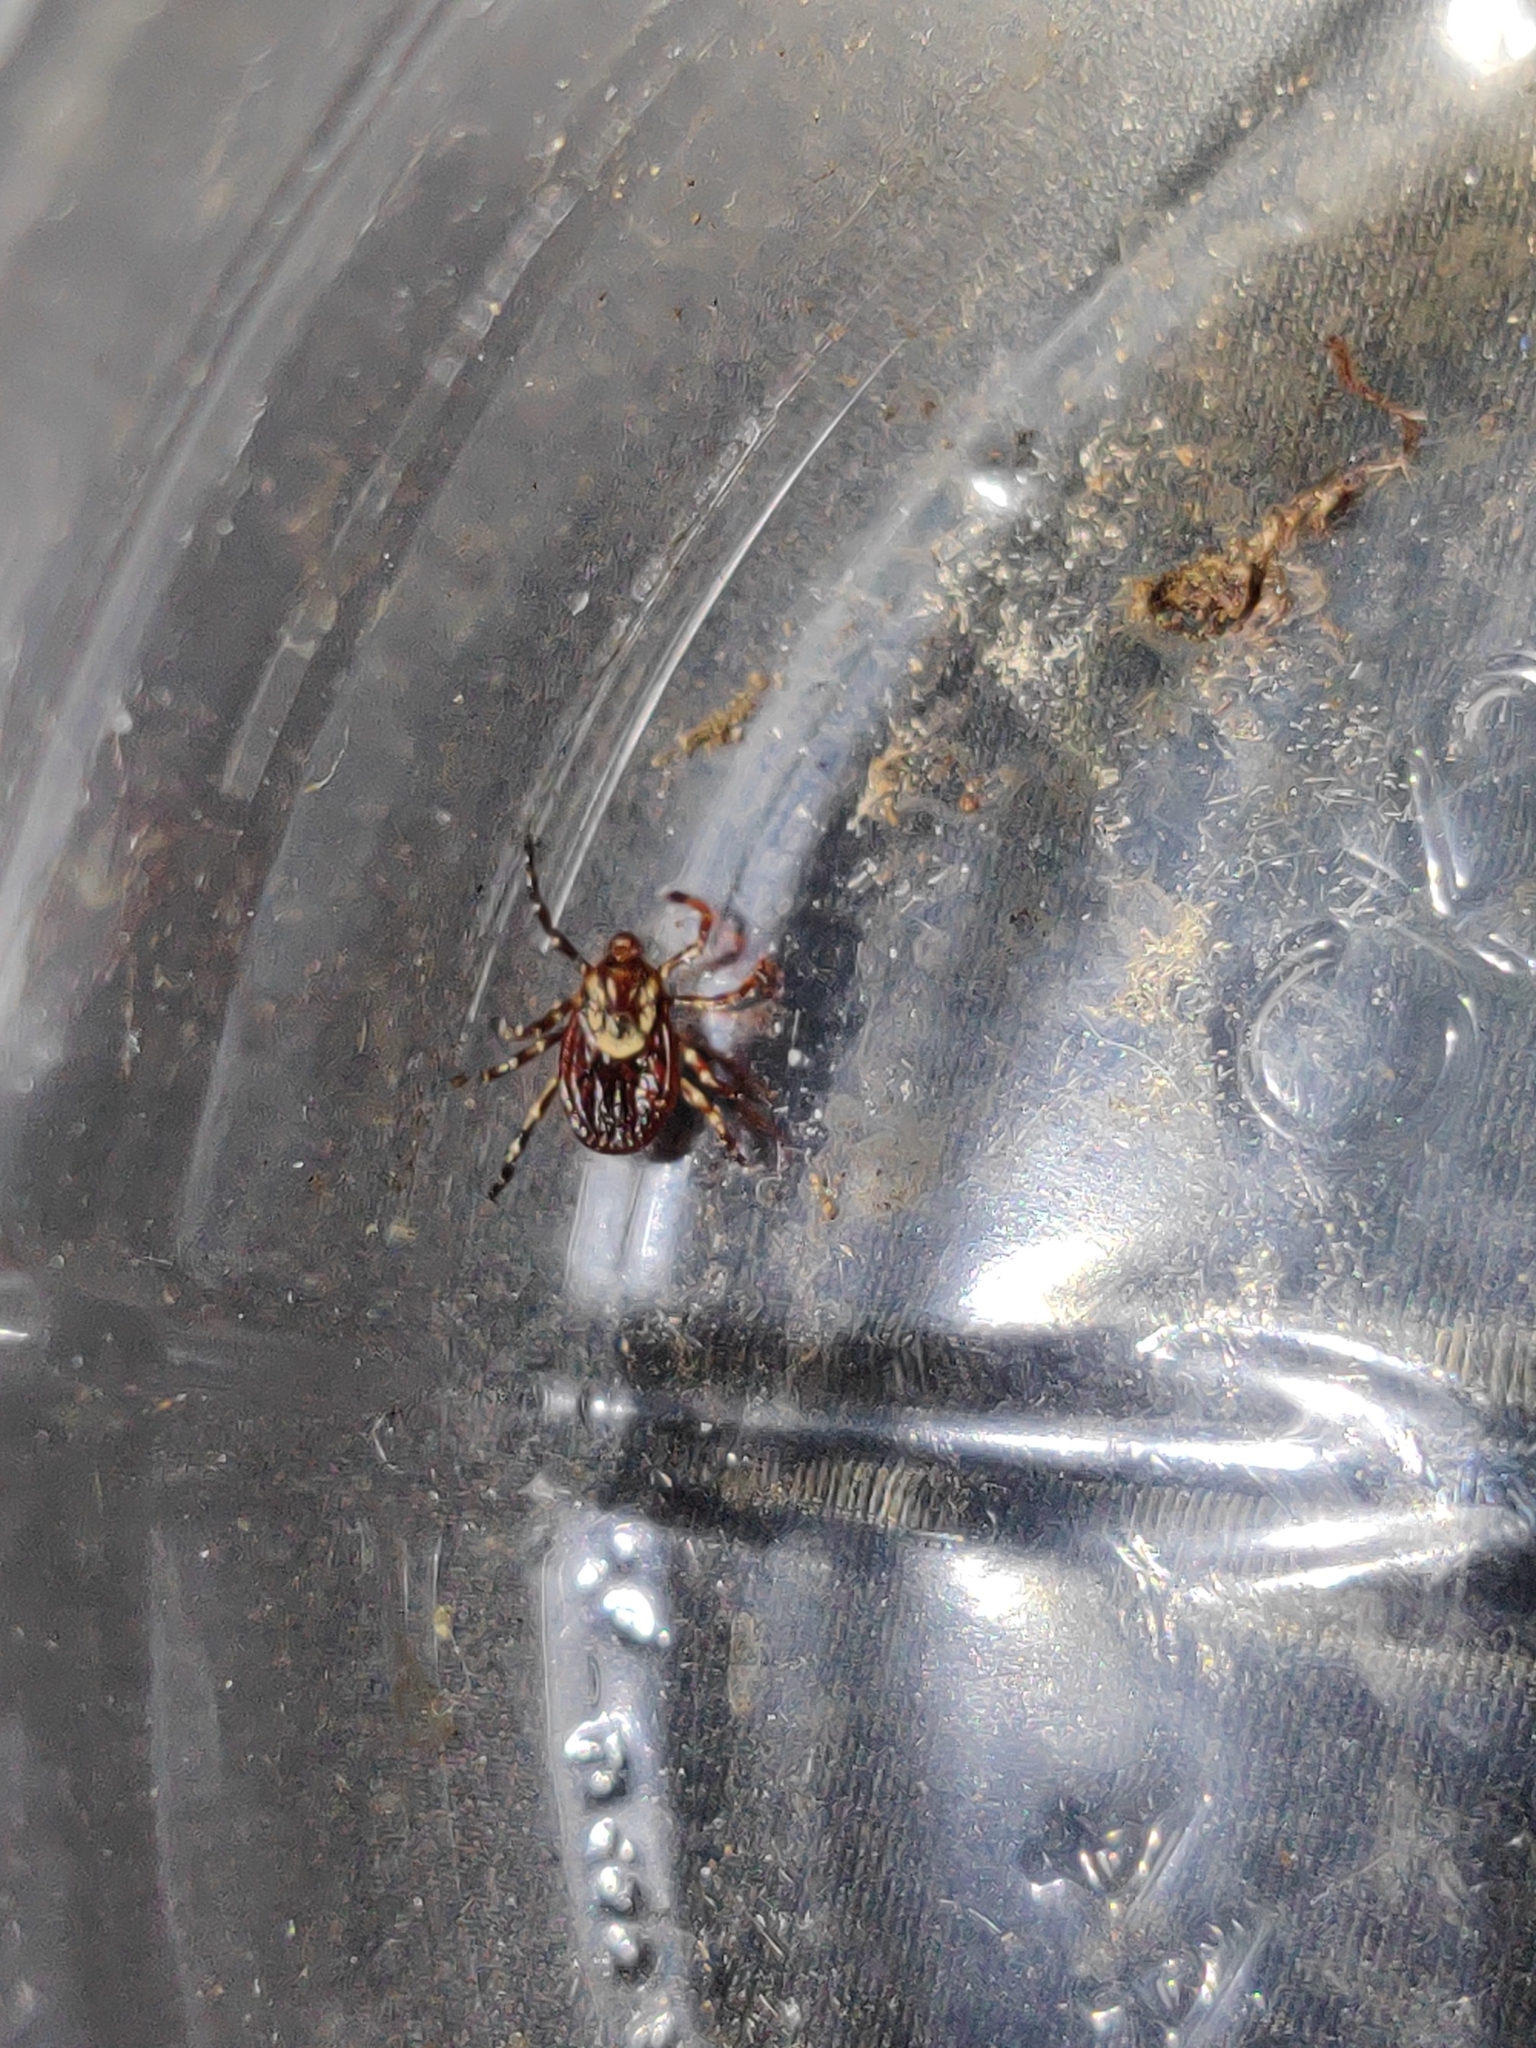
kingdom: Animalia
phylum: Arthropoda
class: Arachnida
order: Ixodida
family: Ixodidae
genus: Dermacentor
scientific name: Dermacentor variabilis
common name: American dog tick
